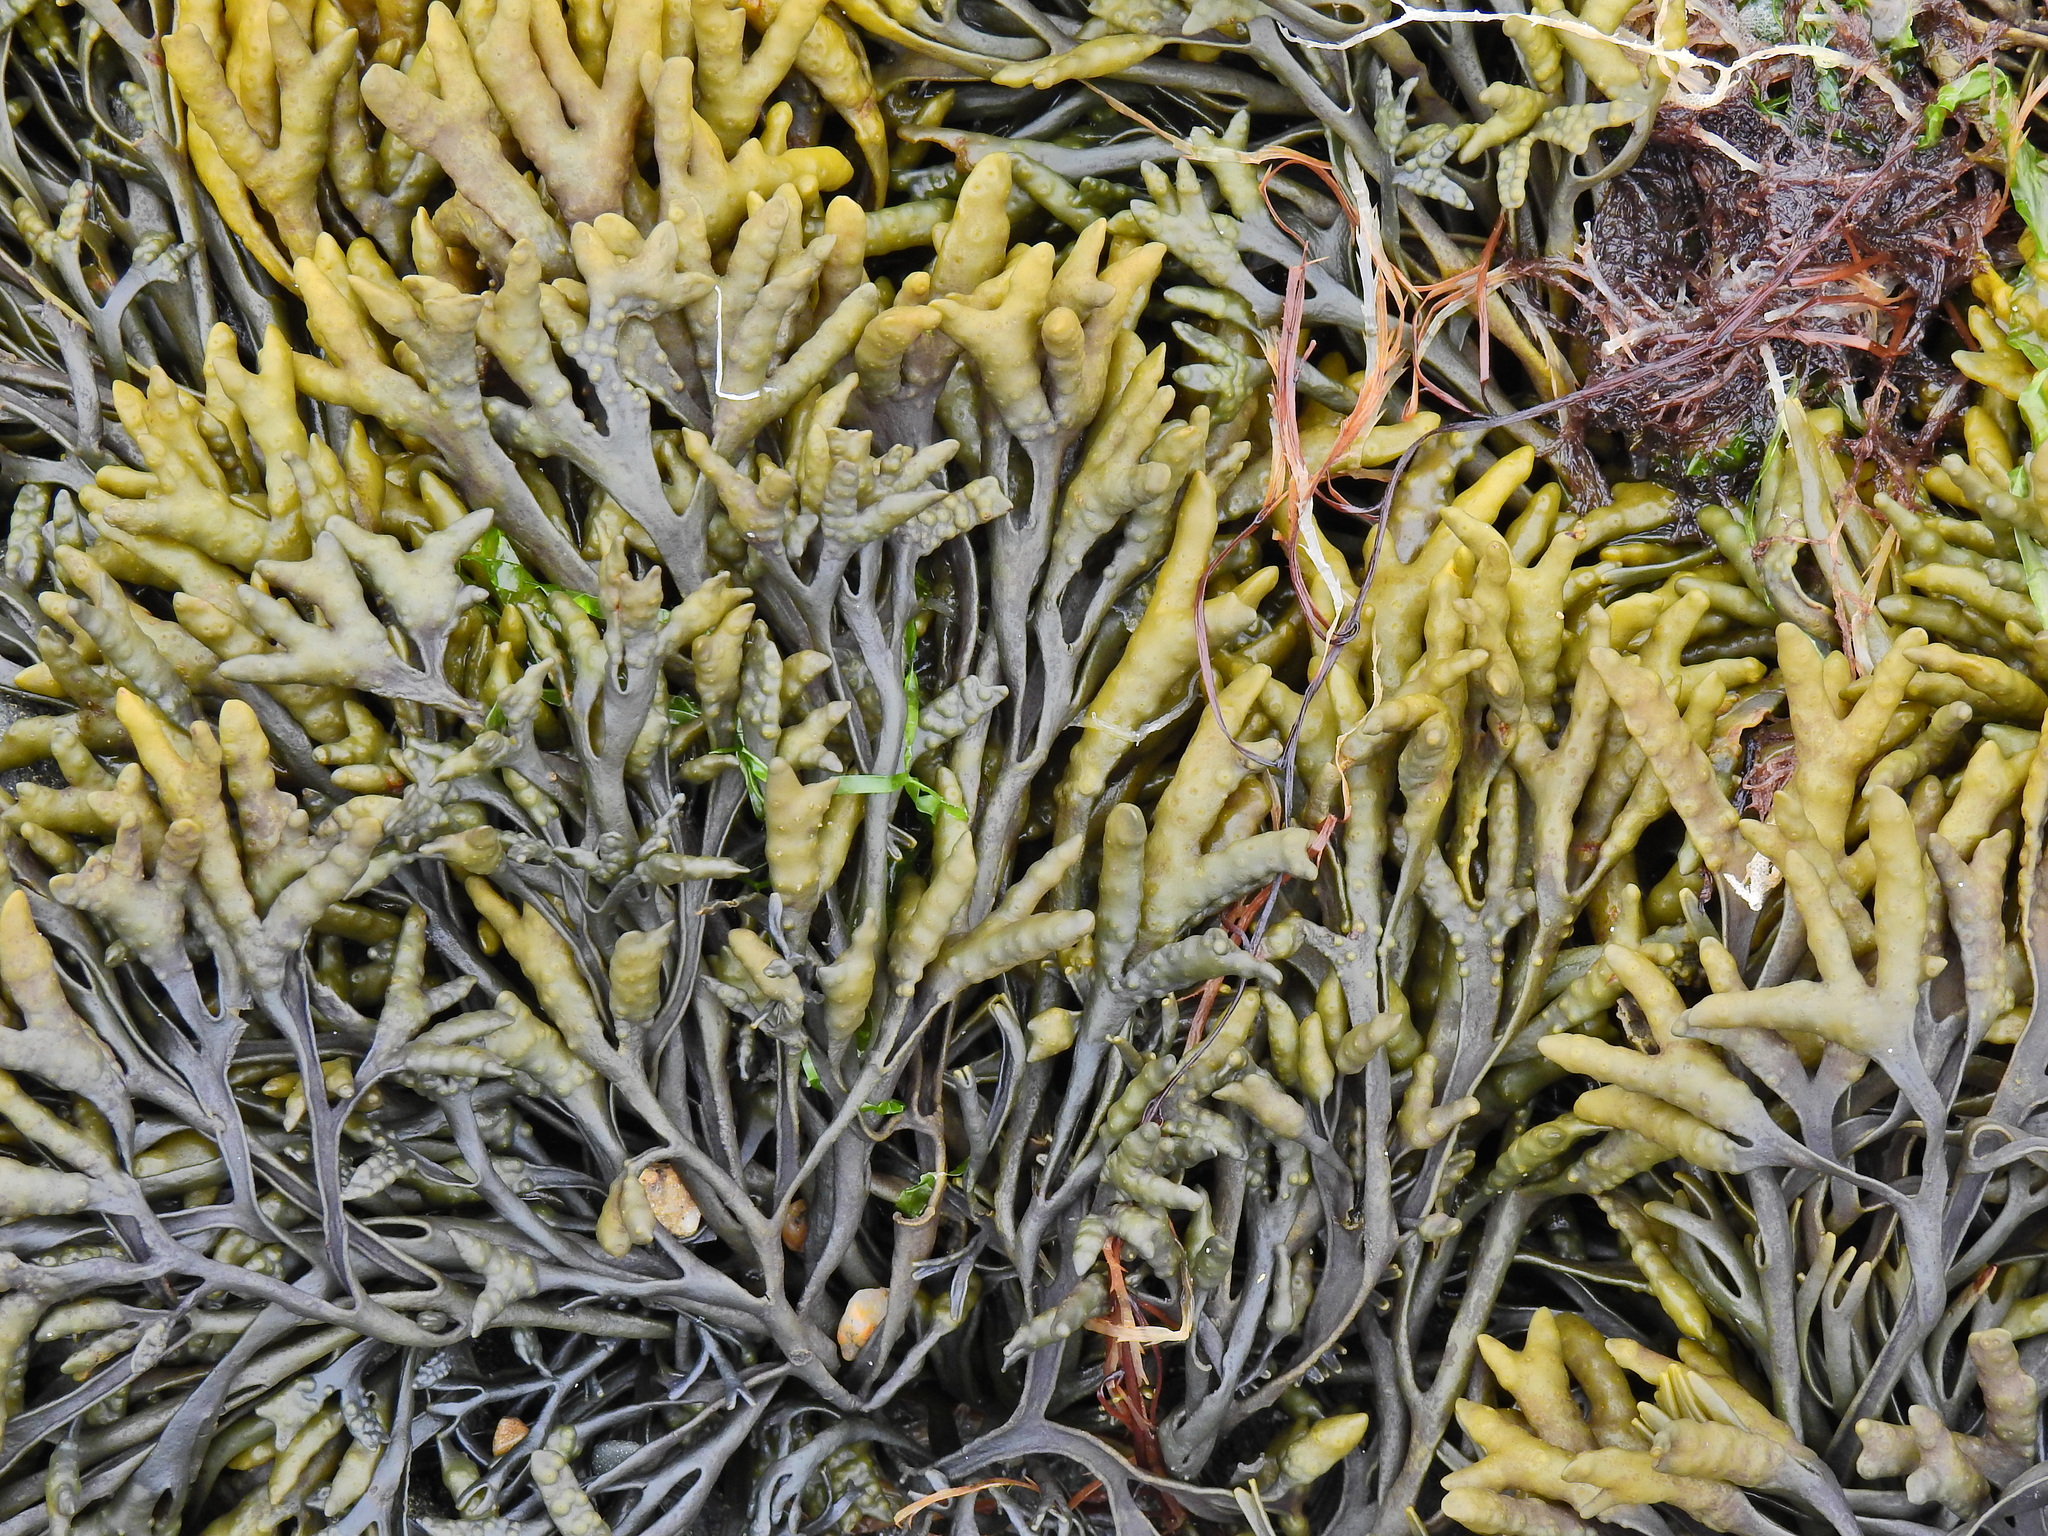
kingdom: Chromista
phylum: Ochrophyta
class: Phaeophyceae
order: Fucales
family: Fucaceae
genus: Pelvetia
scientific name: Pelvetia canaliculata
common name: Channelled wrack
